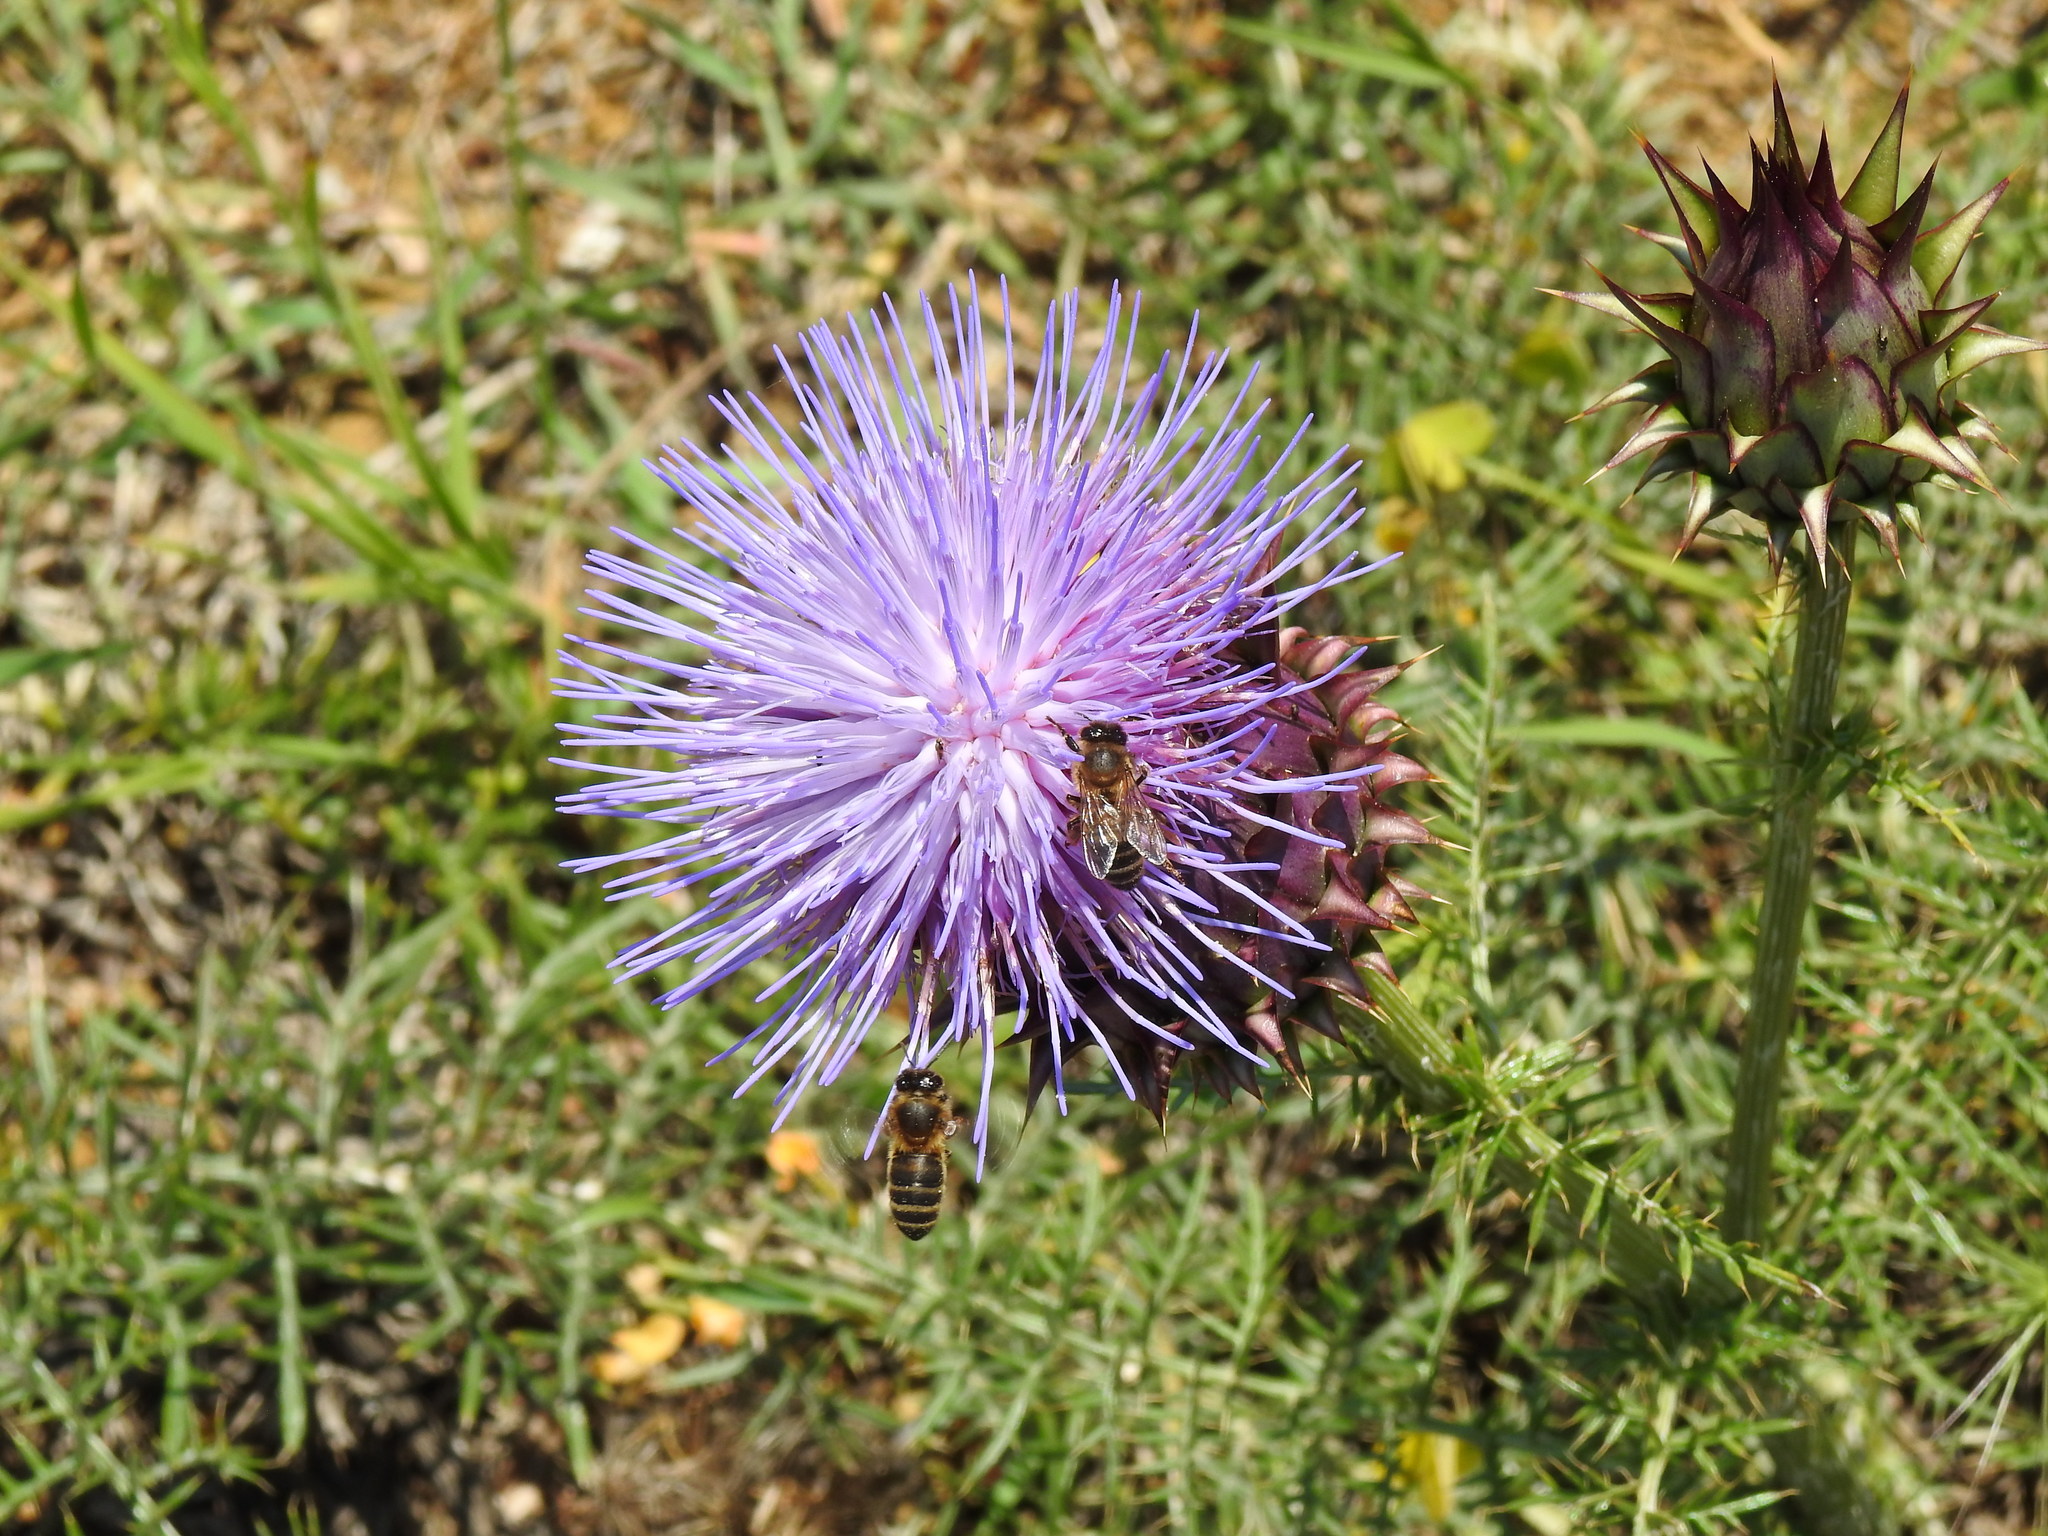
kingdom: Animalia
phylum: Arthropoda
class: Insecta
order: Hymenoptera
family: Apidae
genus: Apis
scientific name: Apis mellifera
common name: Honey bee
